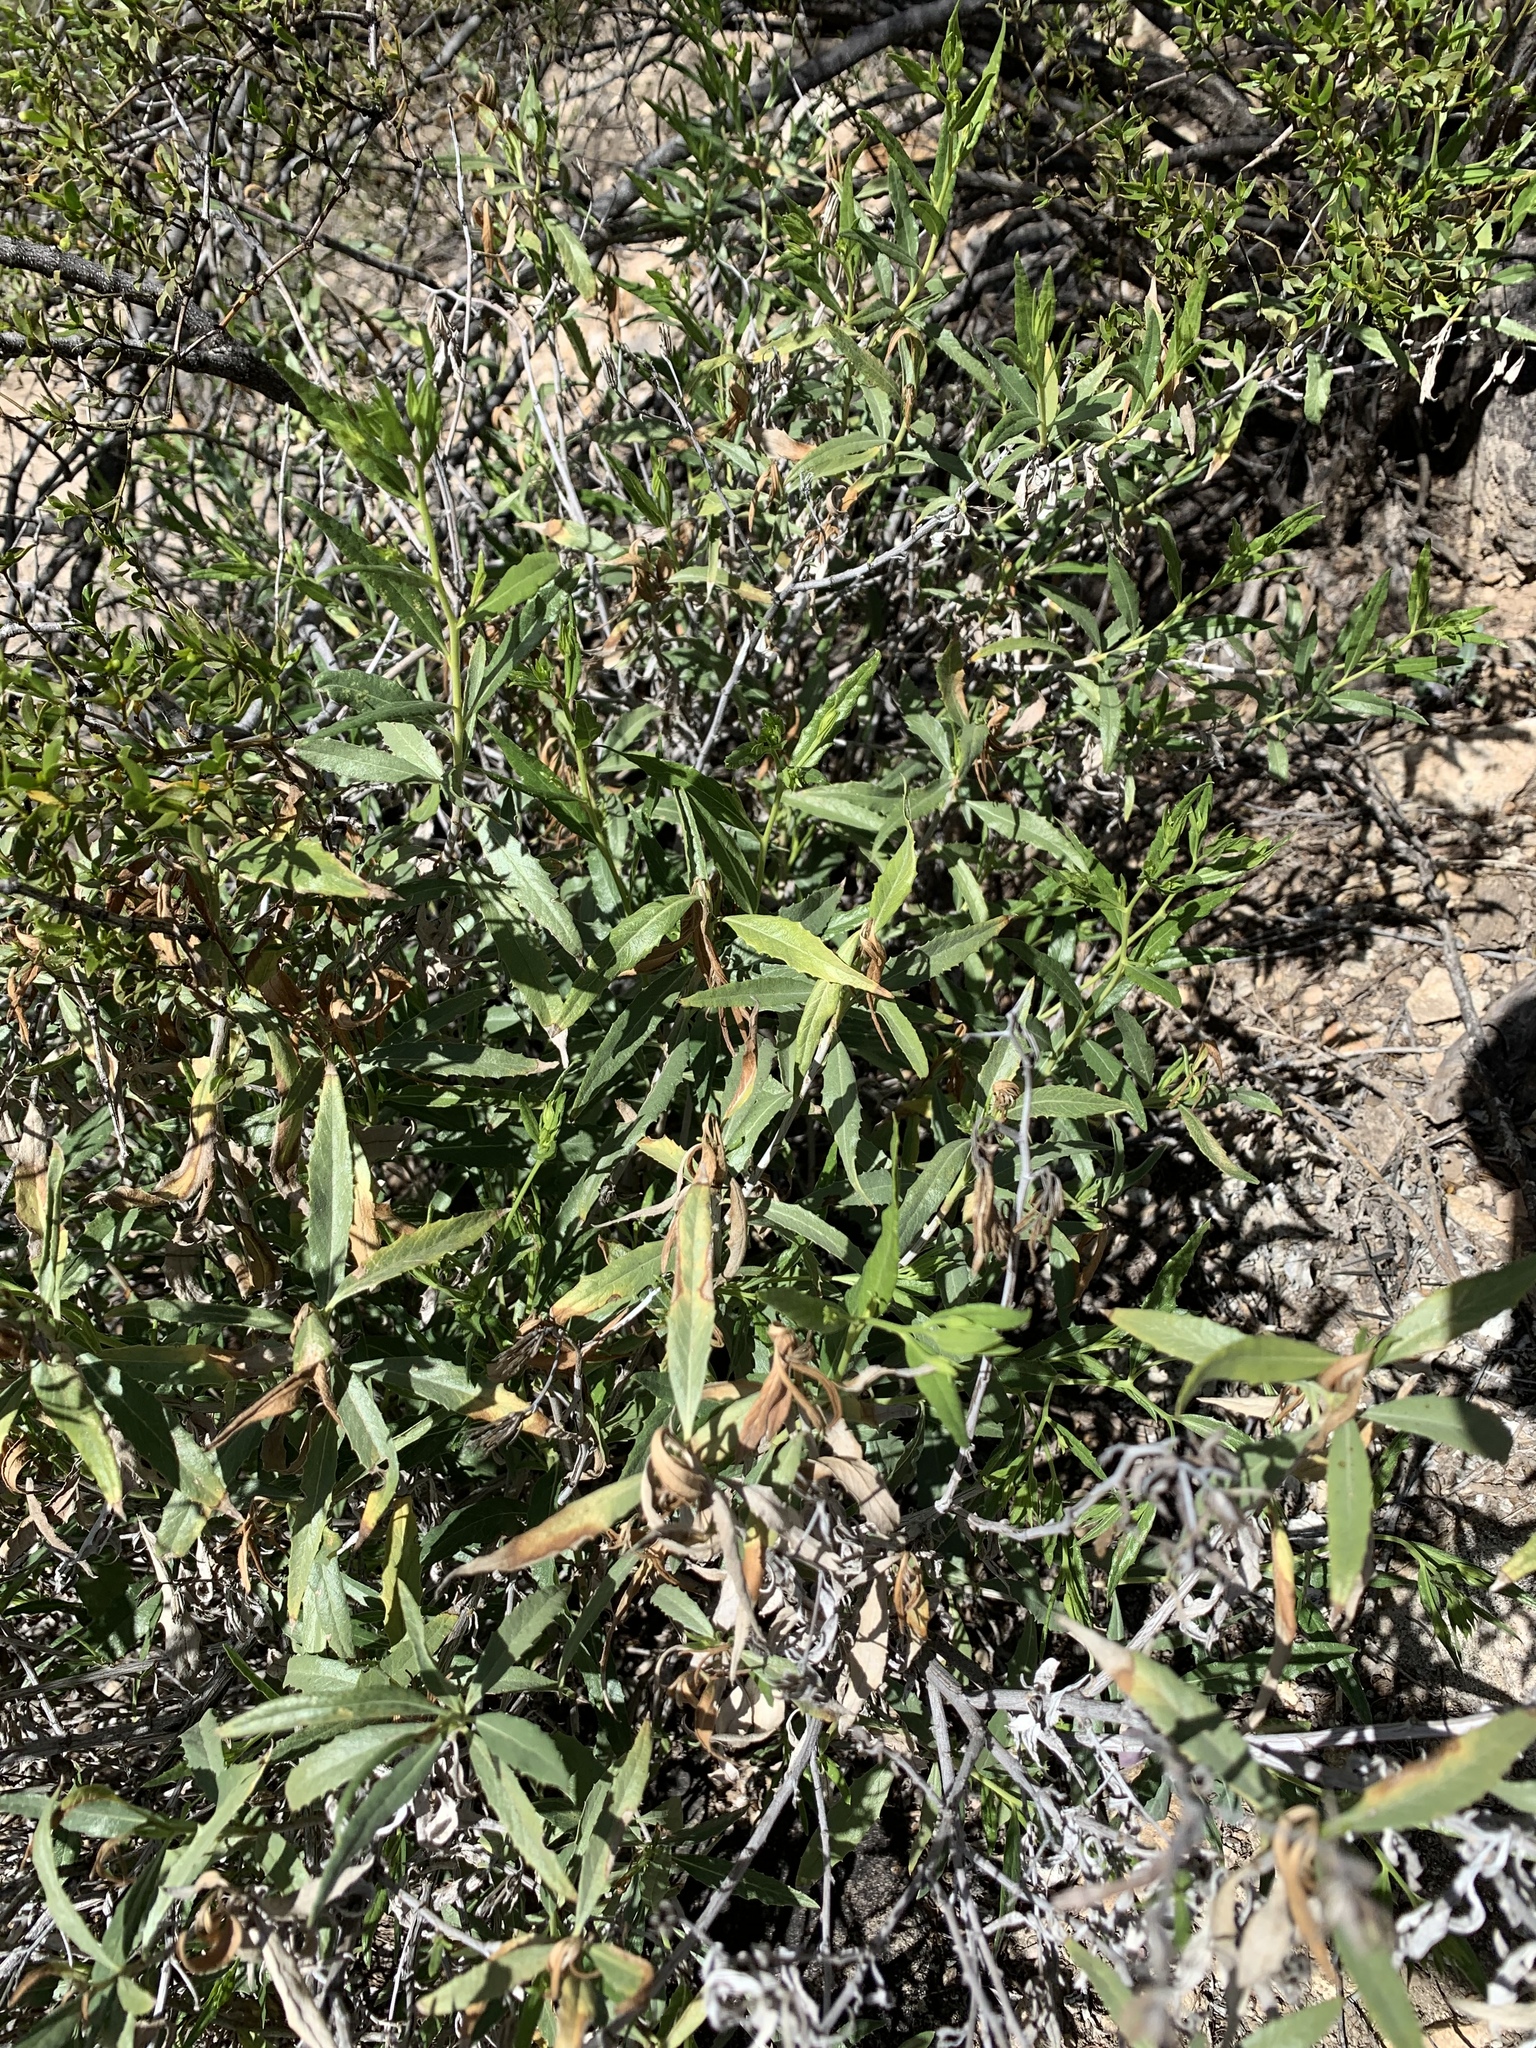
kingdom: Plantae
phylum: Tracheophyta
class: Magnoliopsida
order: Asterales
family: Asteraceae
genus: Trixis
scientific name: Trixis californica
